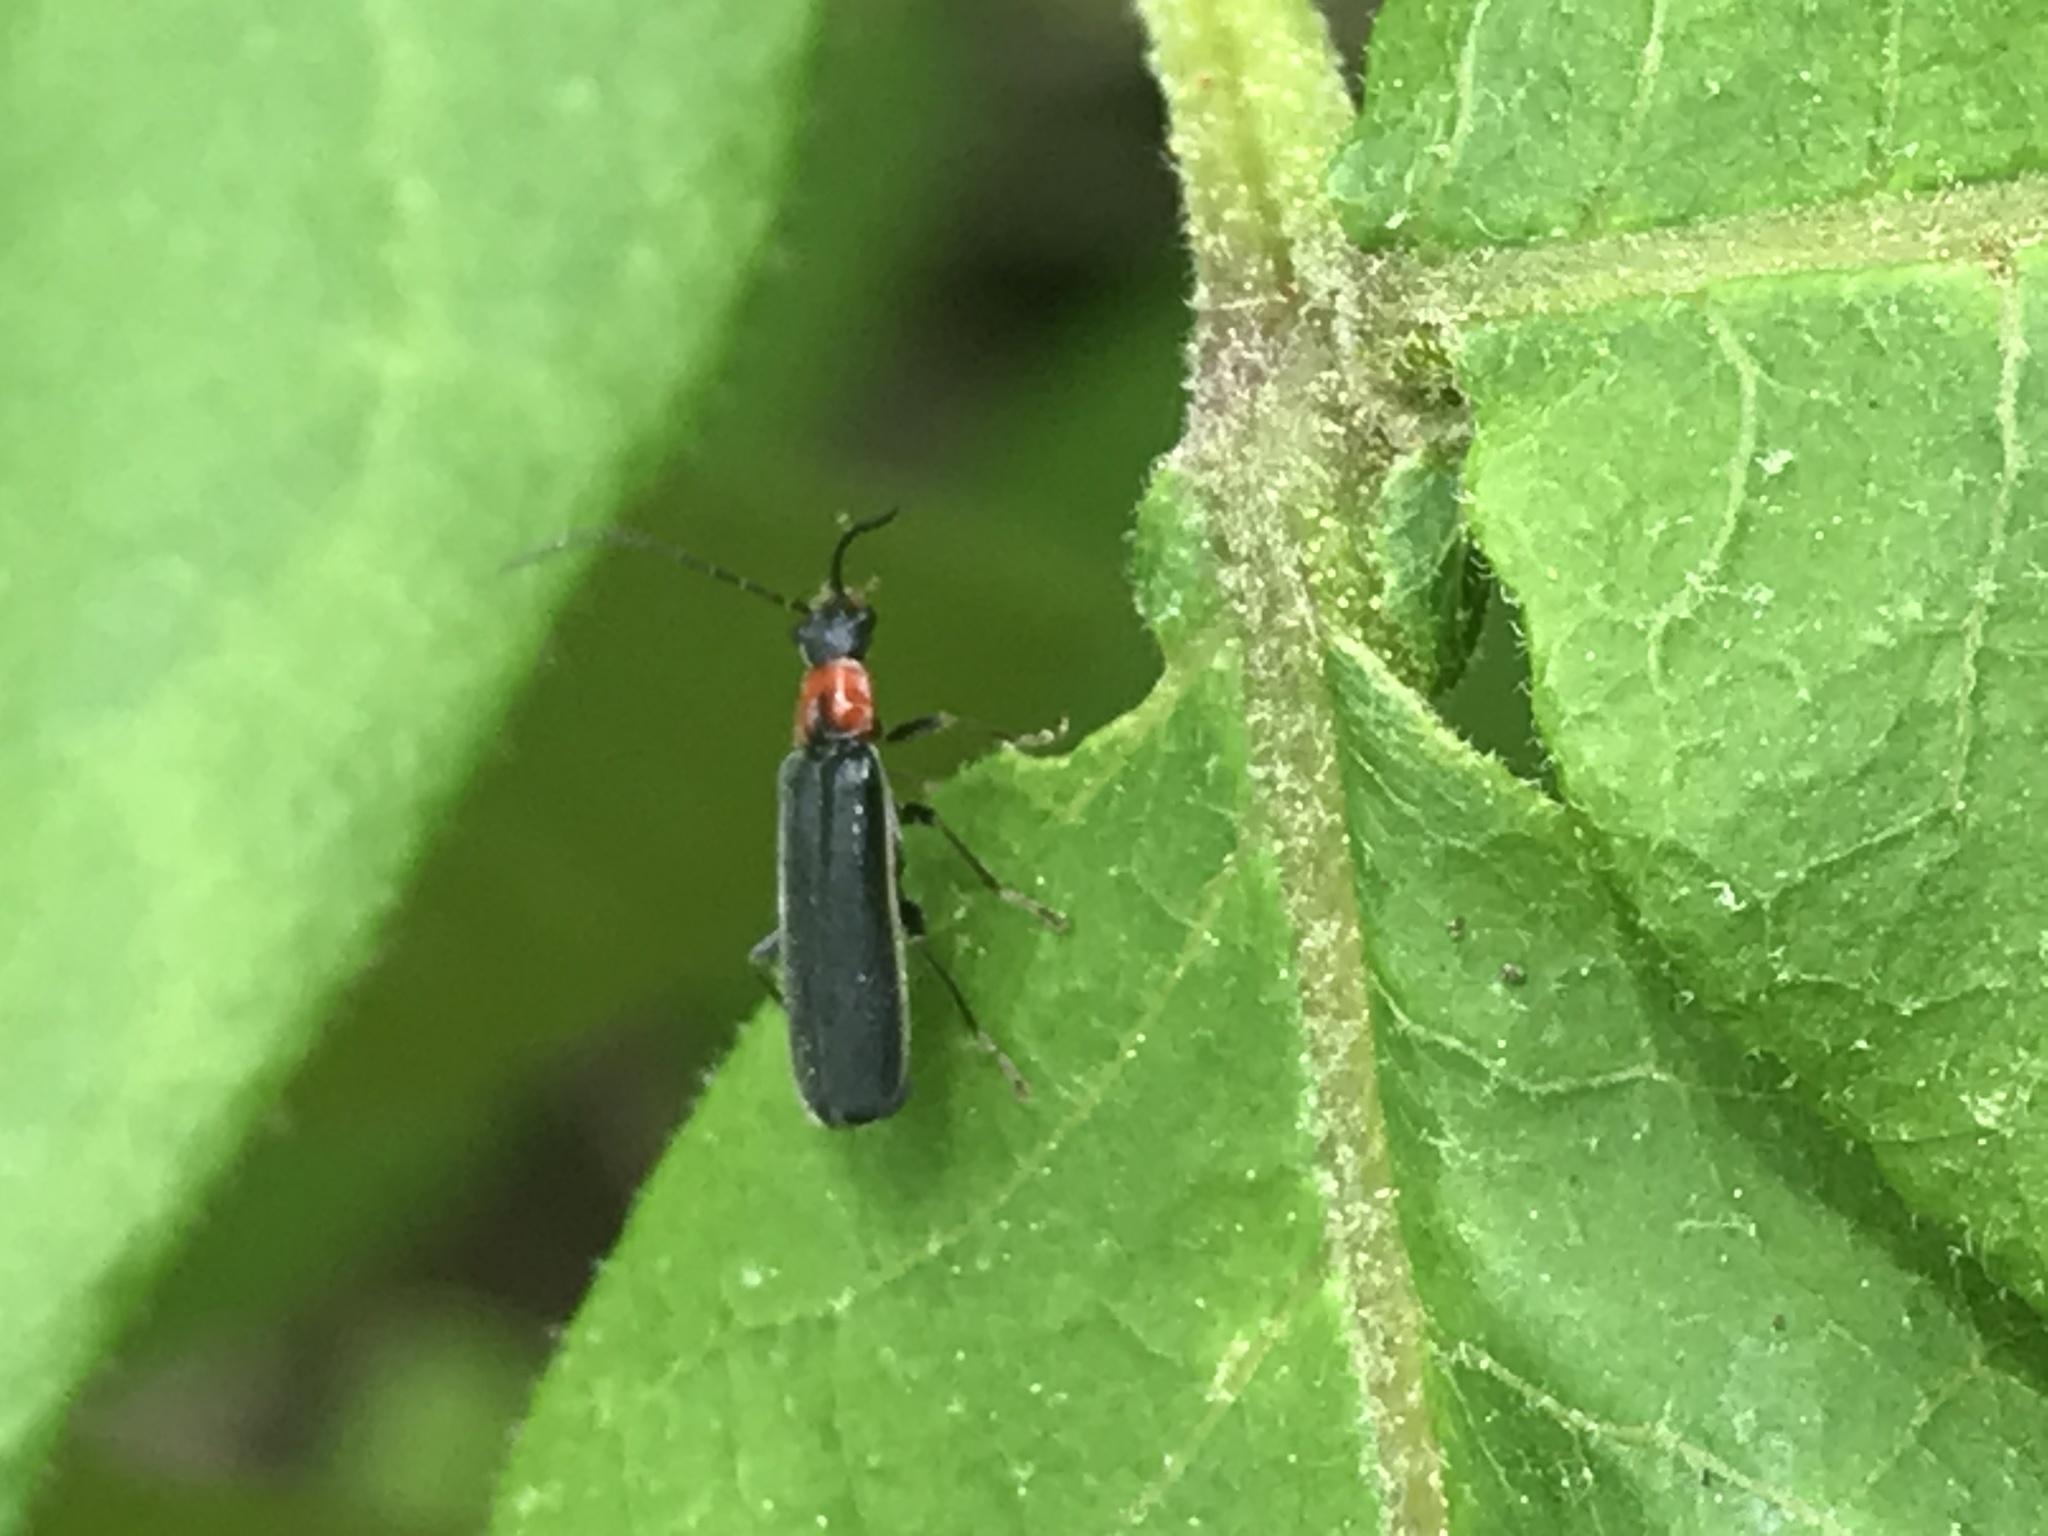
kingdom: Animalia
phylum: Arthropoda
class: Insecta
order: Coleoptera
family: Cantharidae
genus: Rhagonycha
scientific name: Rhagonycha excavata
